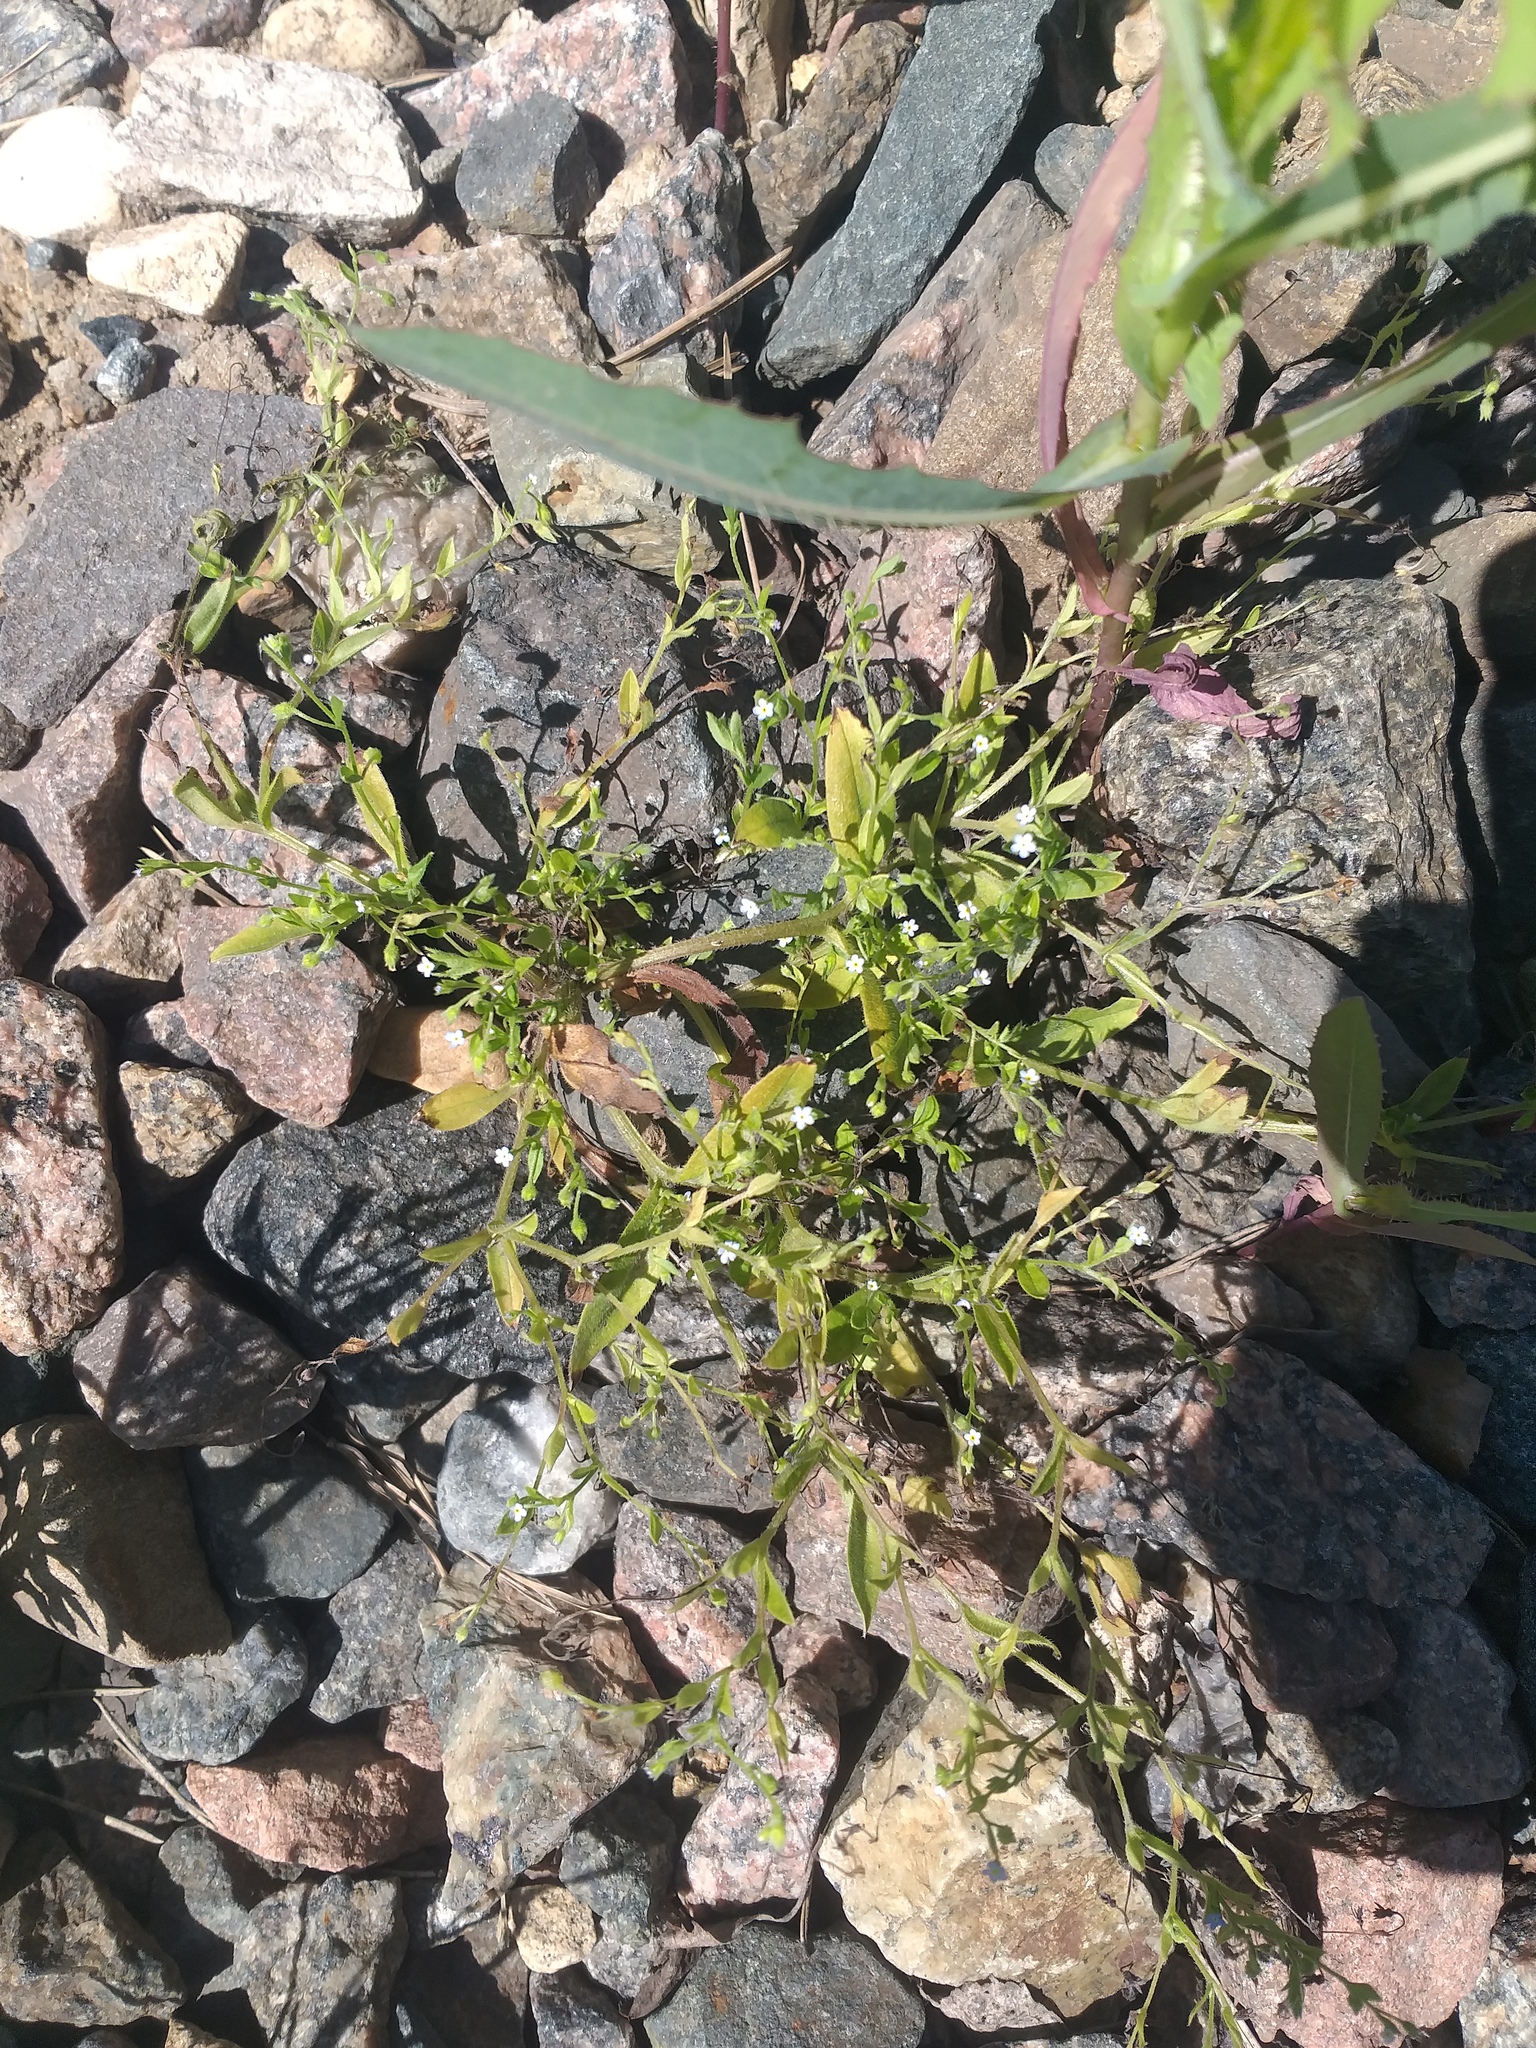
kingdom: Plantae
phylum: Tracheophyta
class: Magnoliopsida
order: Boraginales
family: Boraginaceae
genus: Myosotis
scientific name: Myosotis sparsiflora
